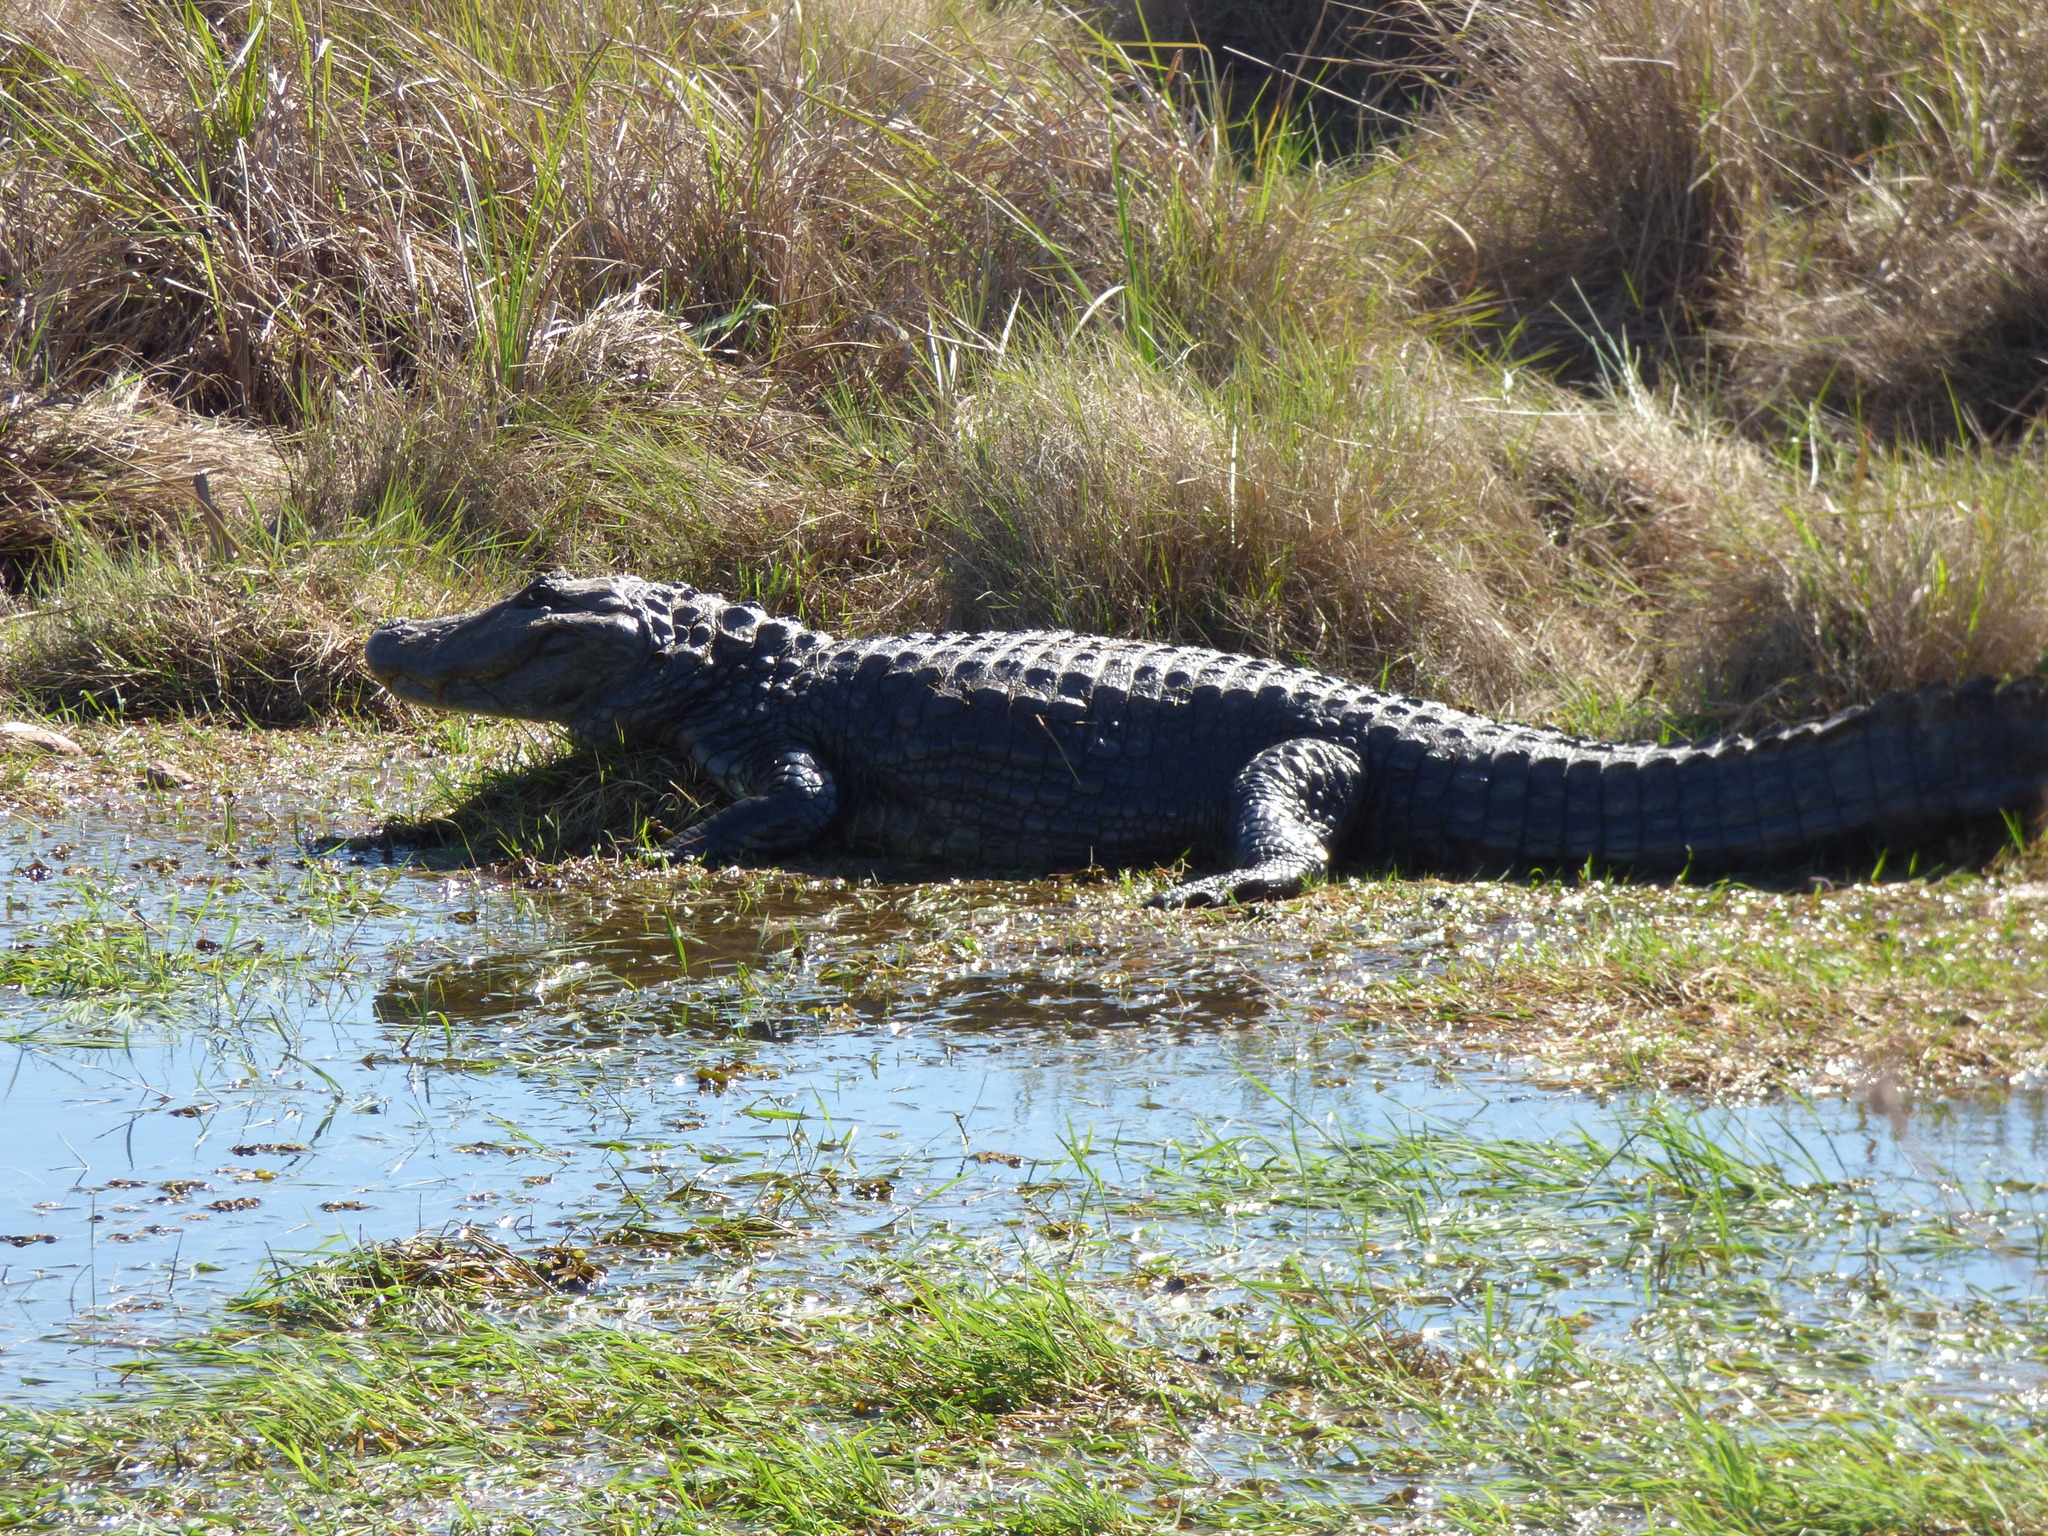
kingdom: Animalia
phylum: Chordata
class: Crocodylia
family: Alligatoridae
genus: Caiman
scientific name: Caiman latirostris
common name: Broad-snouted caiman
